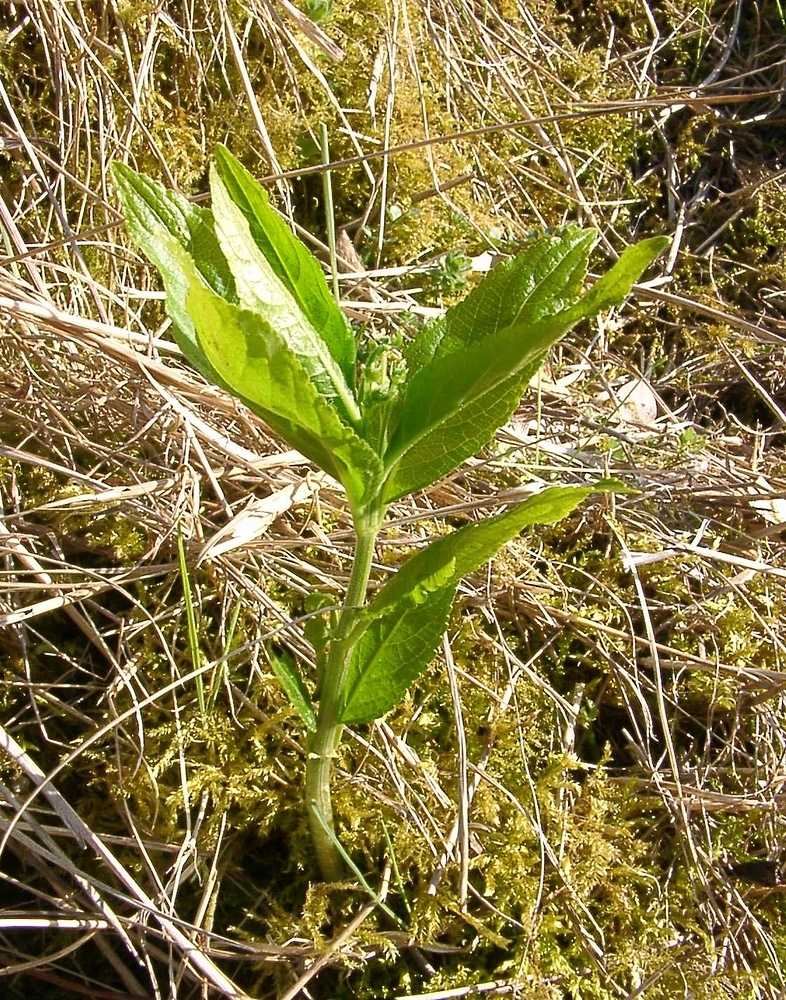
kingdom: Plantae
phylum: Tracheophyta
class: Magnoliopsida
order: Malpighiales
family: Euphorbiaceae
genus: Mercurialis
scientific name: Mercurialis perennis
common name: Dog mercury
